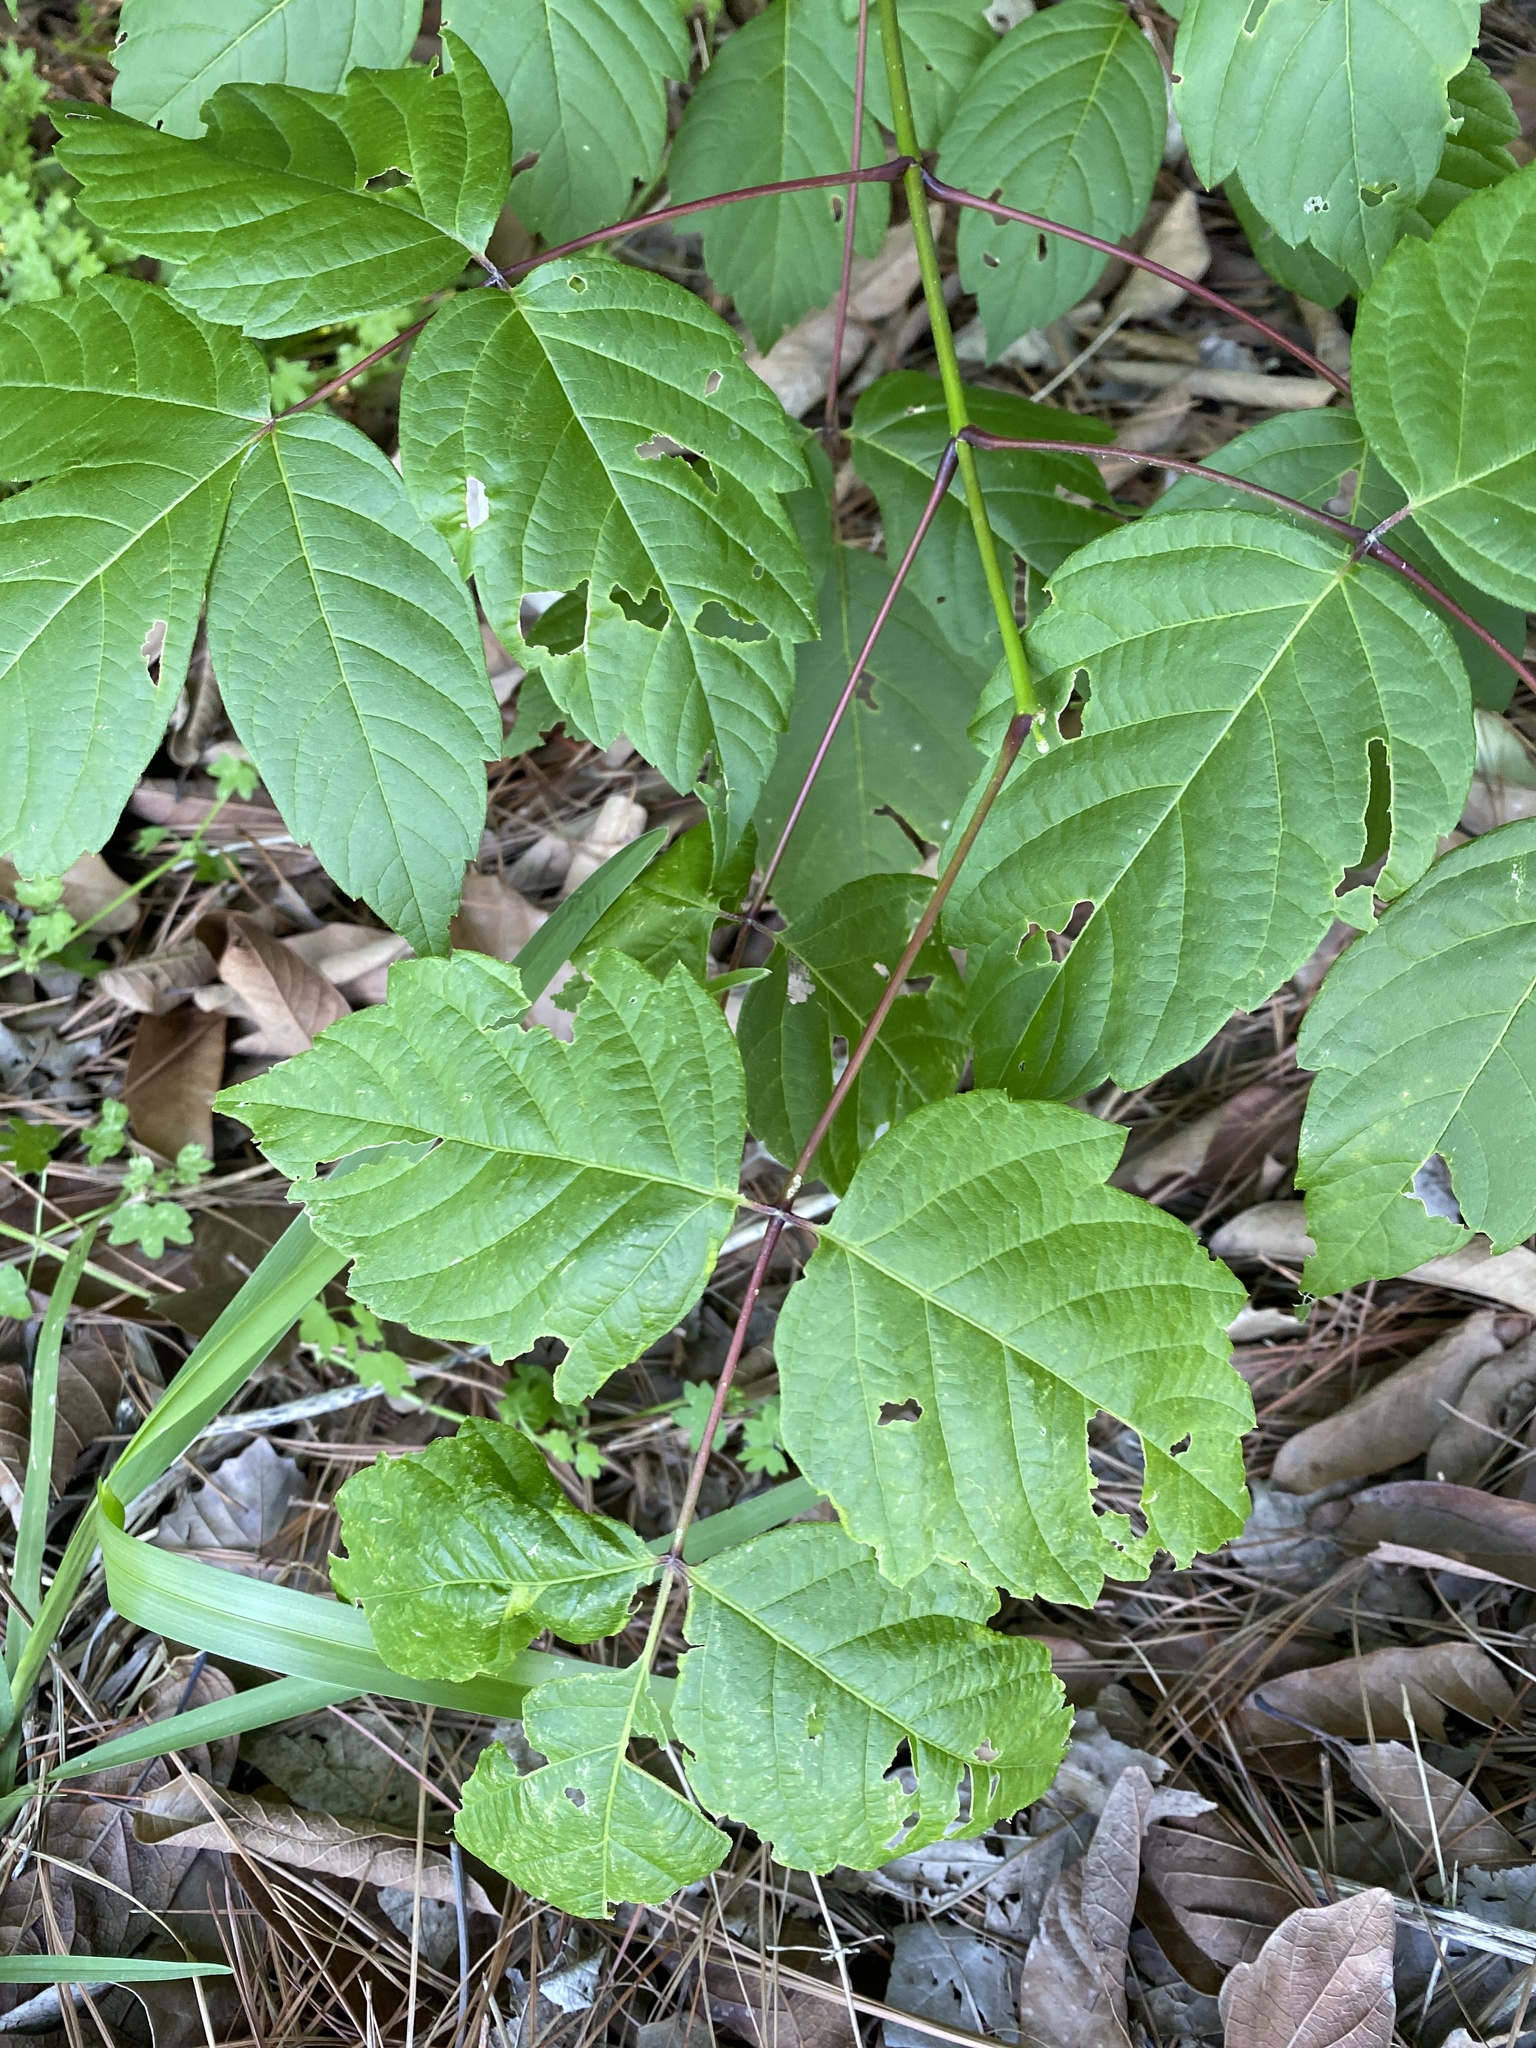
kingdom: Plantae
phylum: Tracheophyta
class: Magnoliopsida
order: Sapindales
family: Sapindaceae
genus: Acer
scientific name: Acer negundo
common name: Ashleaf maple
